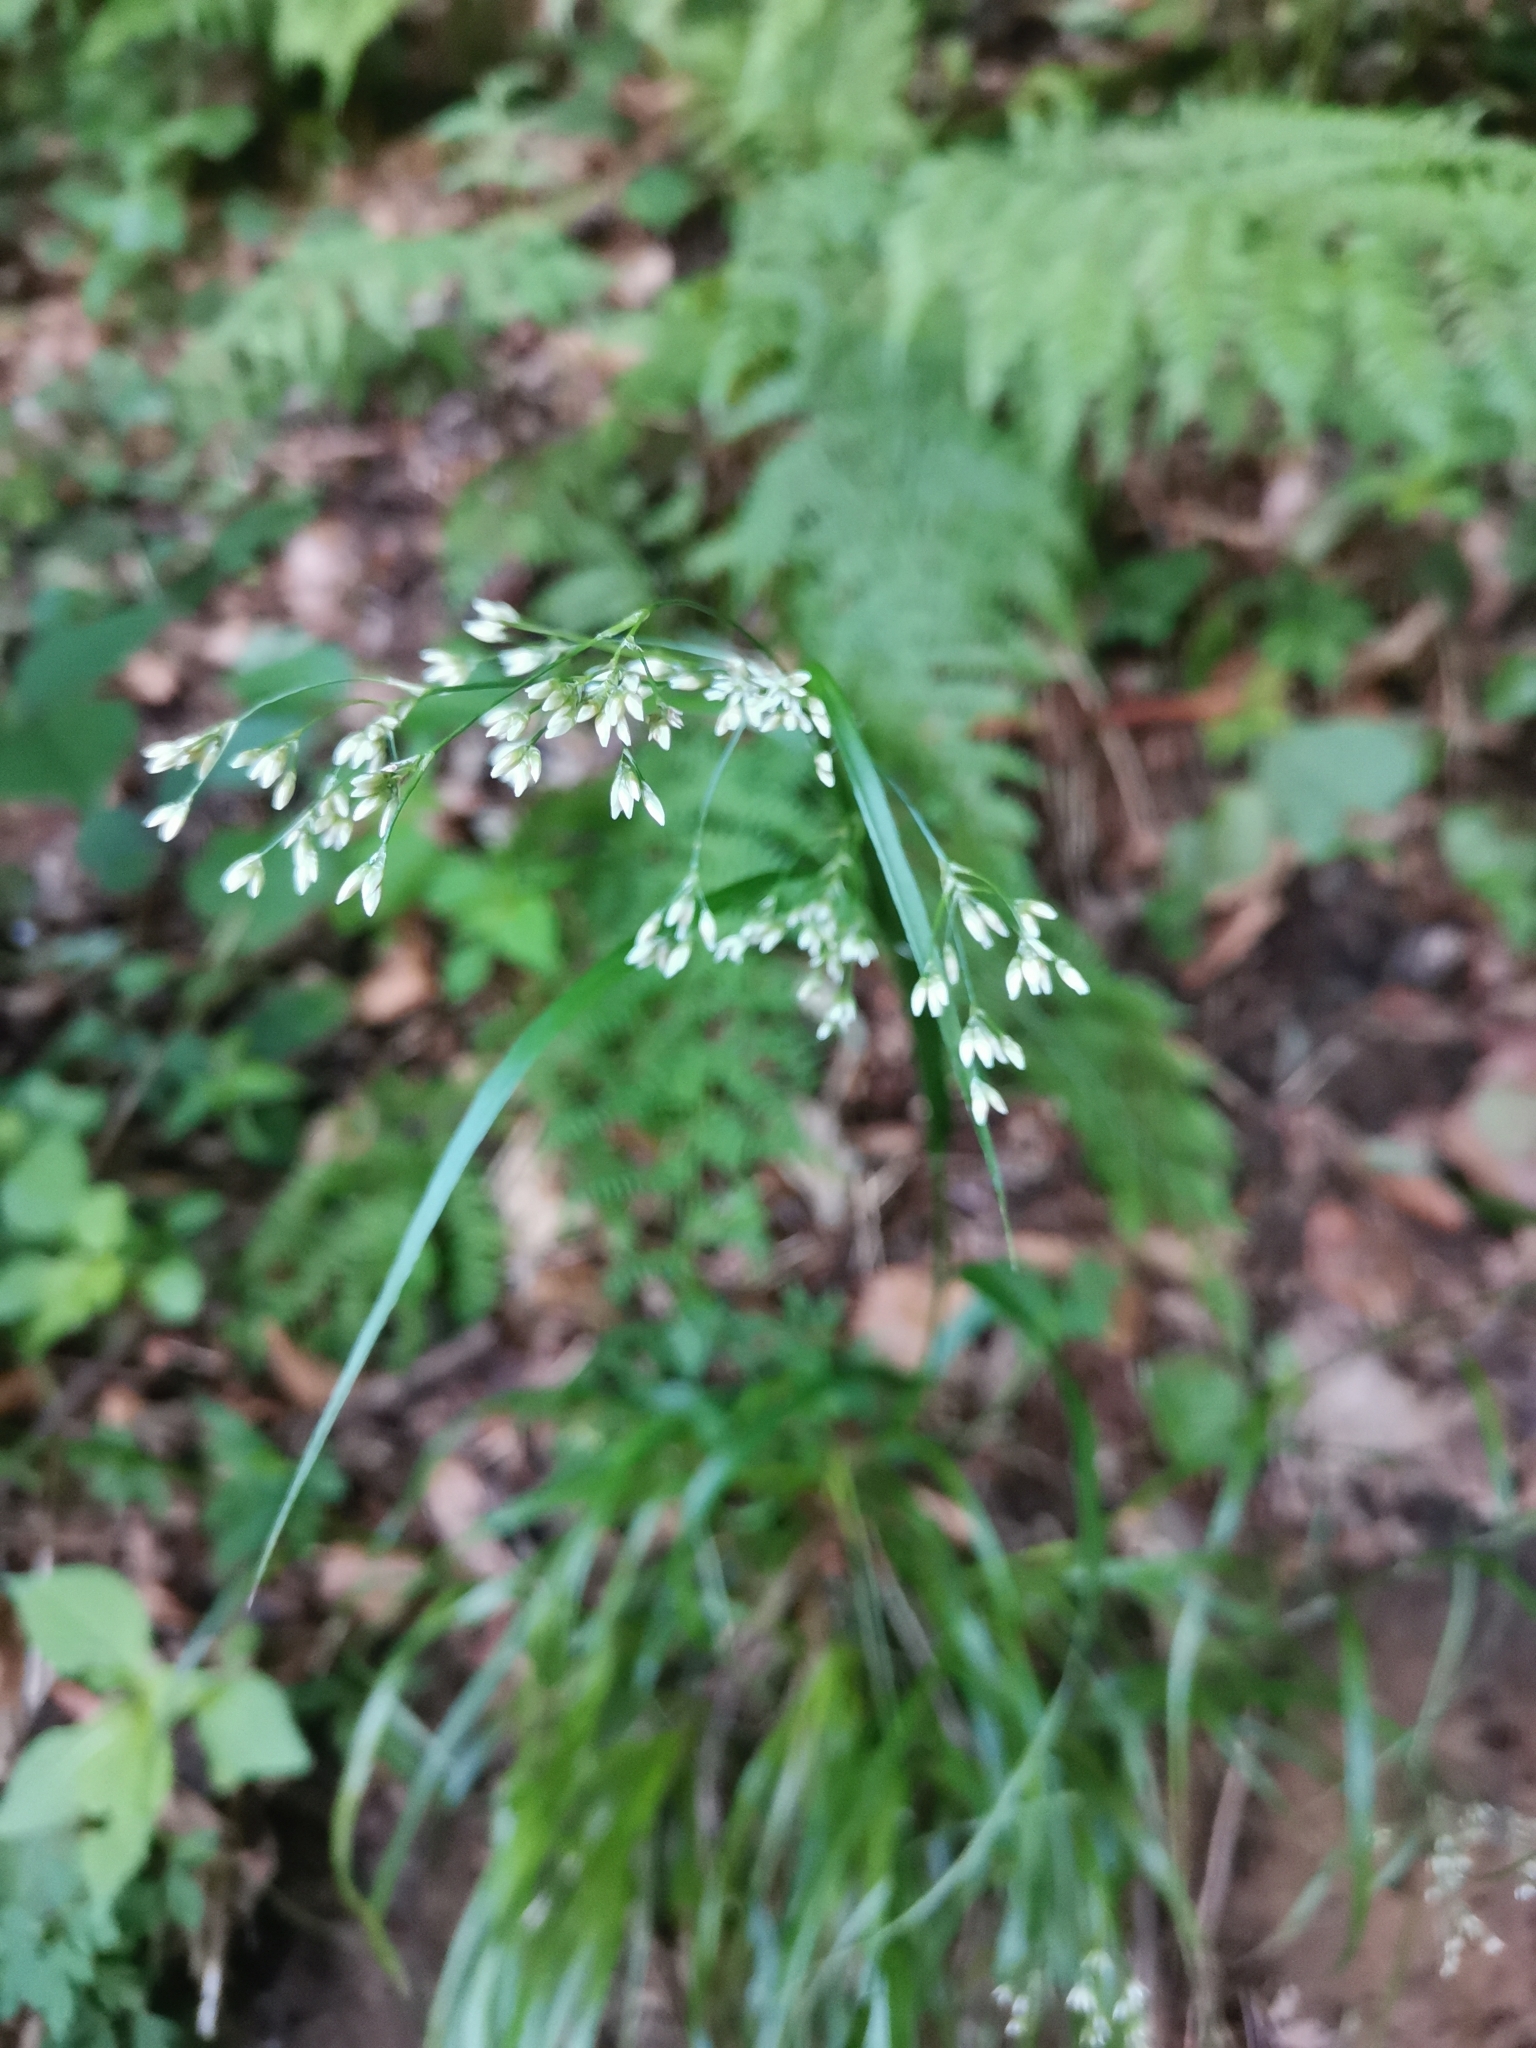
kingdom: Plantae
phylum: Tracheophyta
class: Liliopsida
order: Poales
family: Juncaceae
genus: Luzula
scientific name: Luzula luzuloides
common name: White wood-rush
